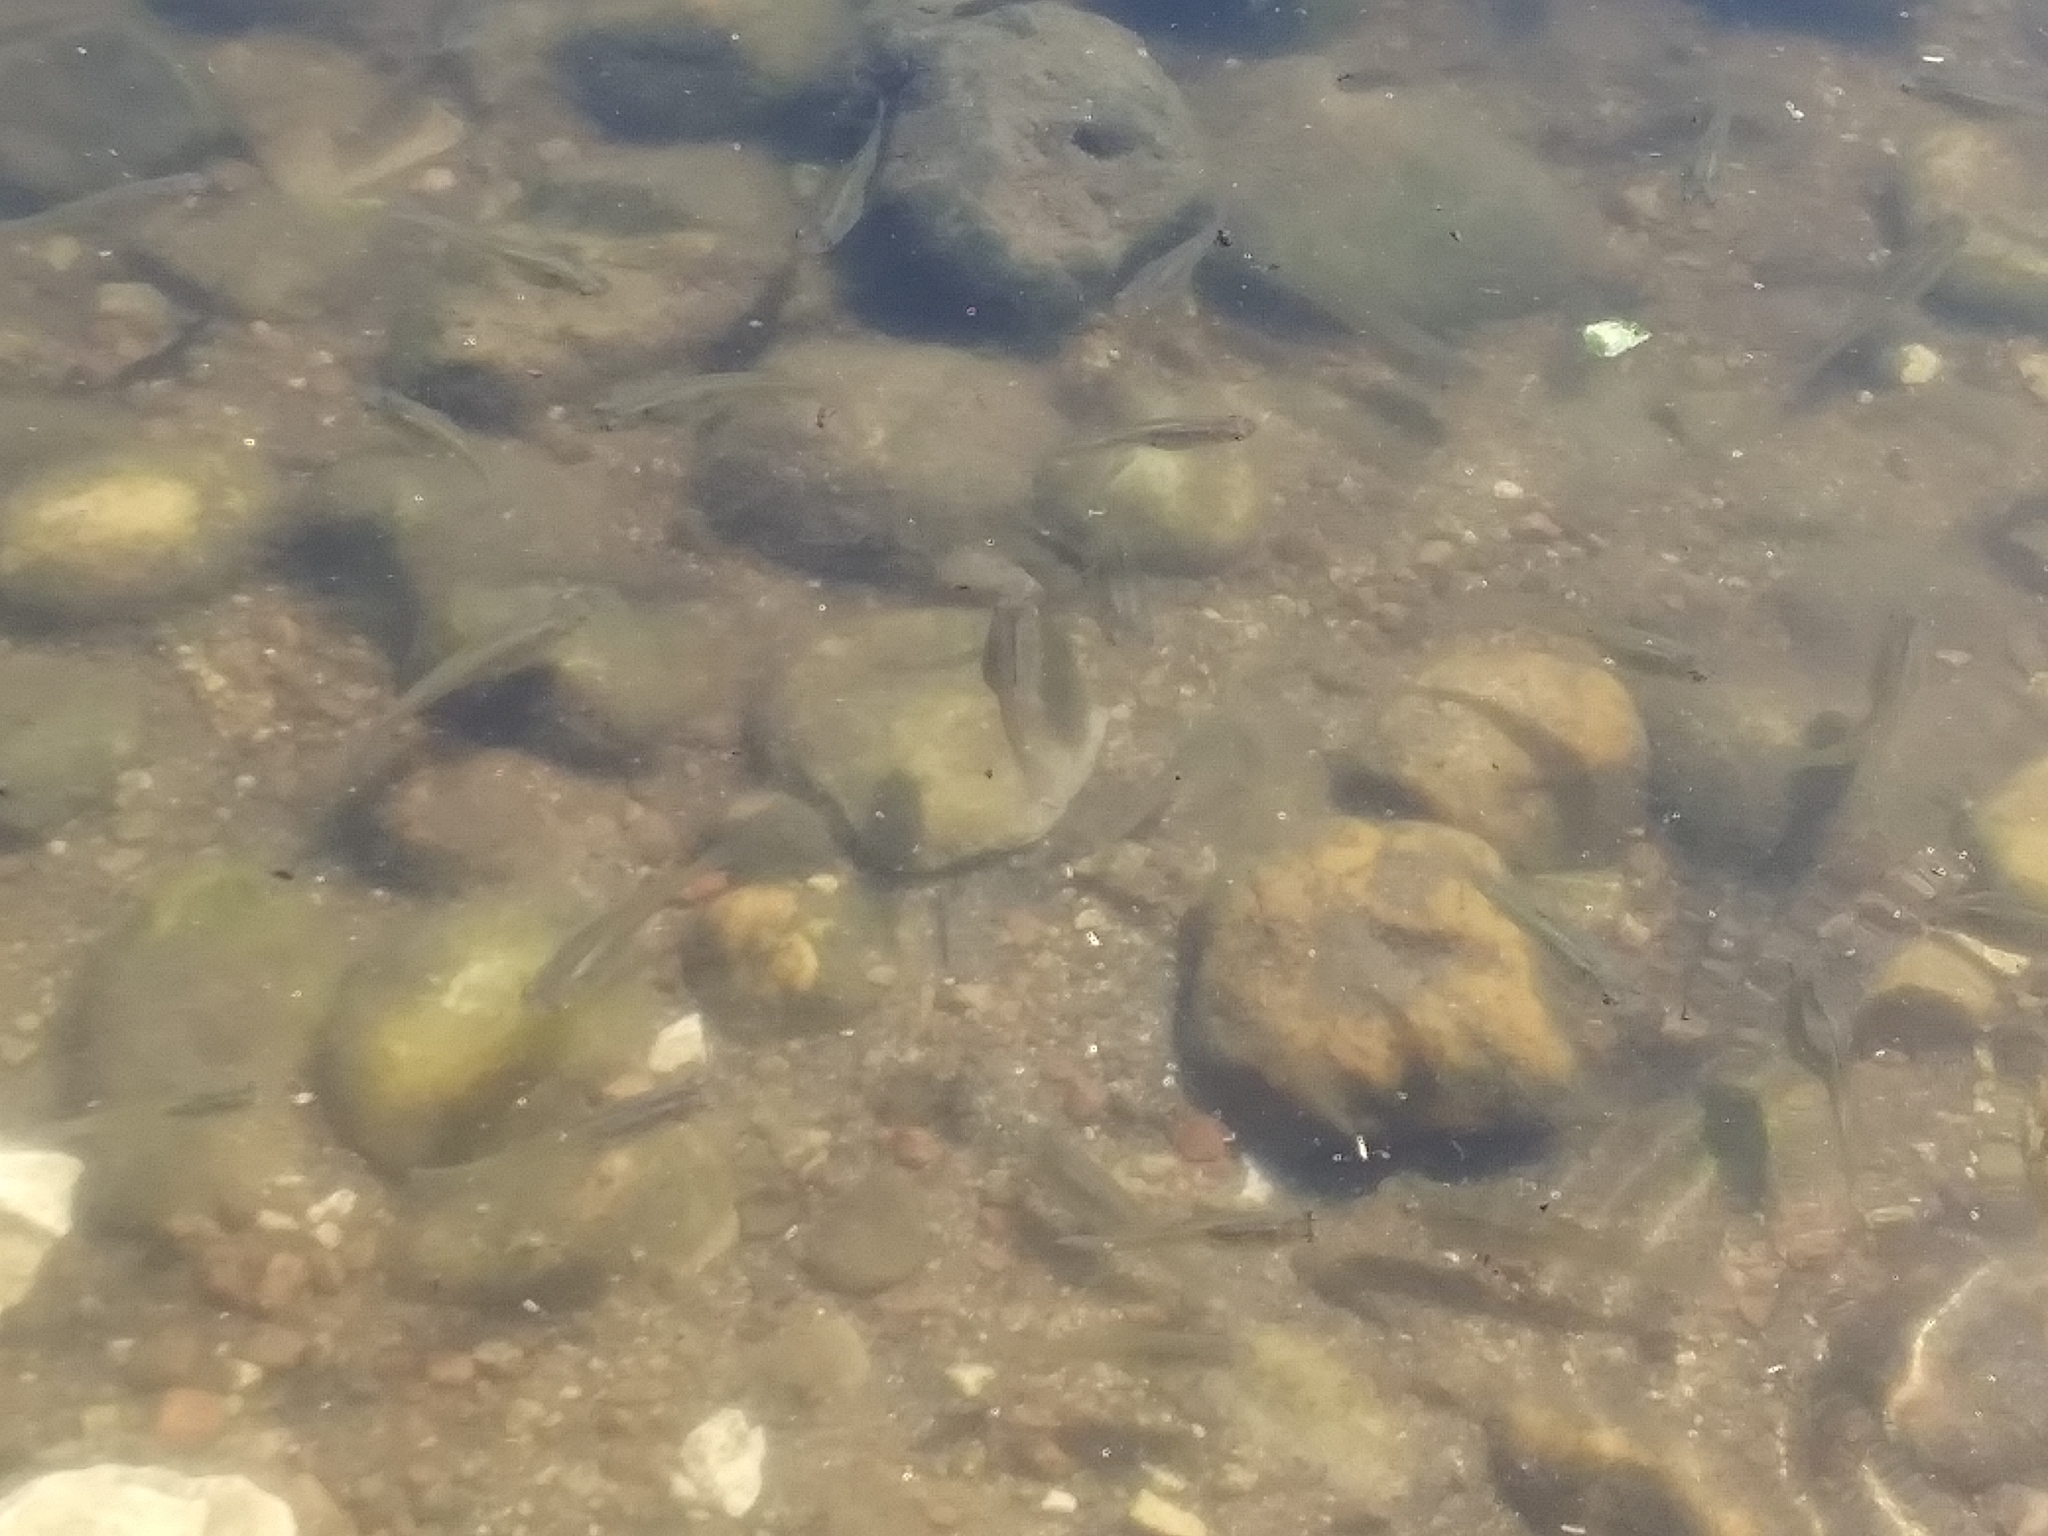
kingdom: Animalia
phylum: Chordata
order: Cyprinodontiformes
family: Poeciliidae
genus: Gambusia
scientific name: Gambusia affinis
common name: Mosquitofish
